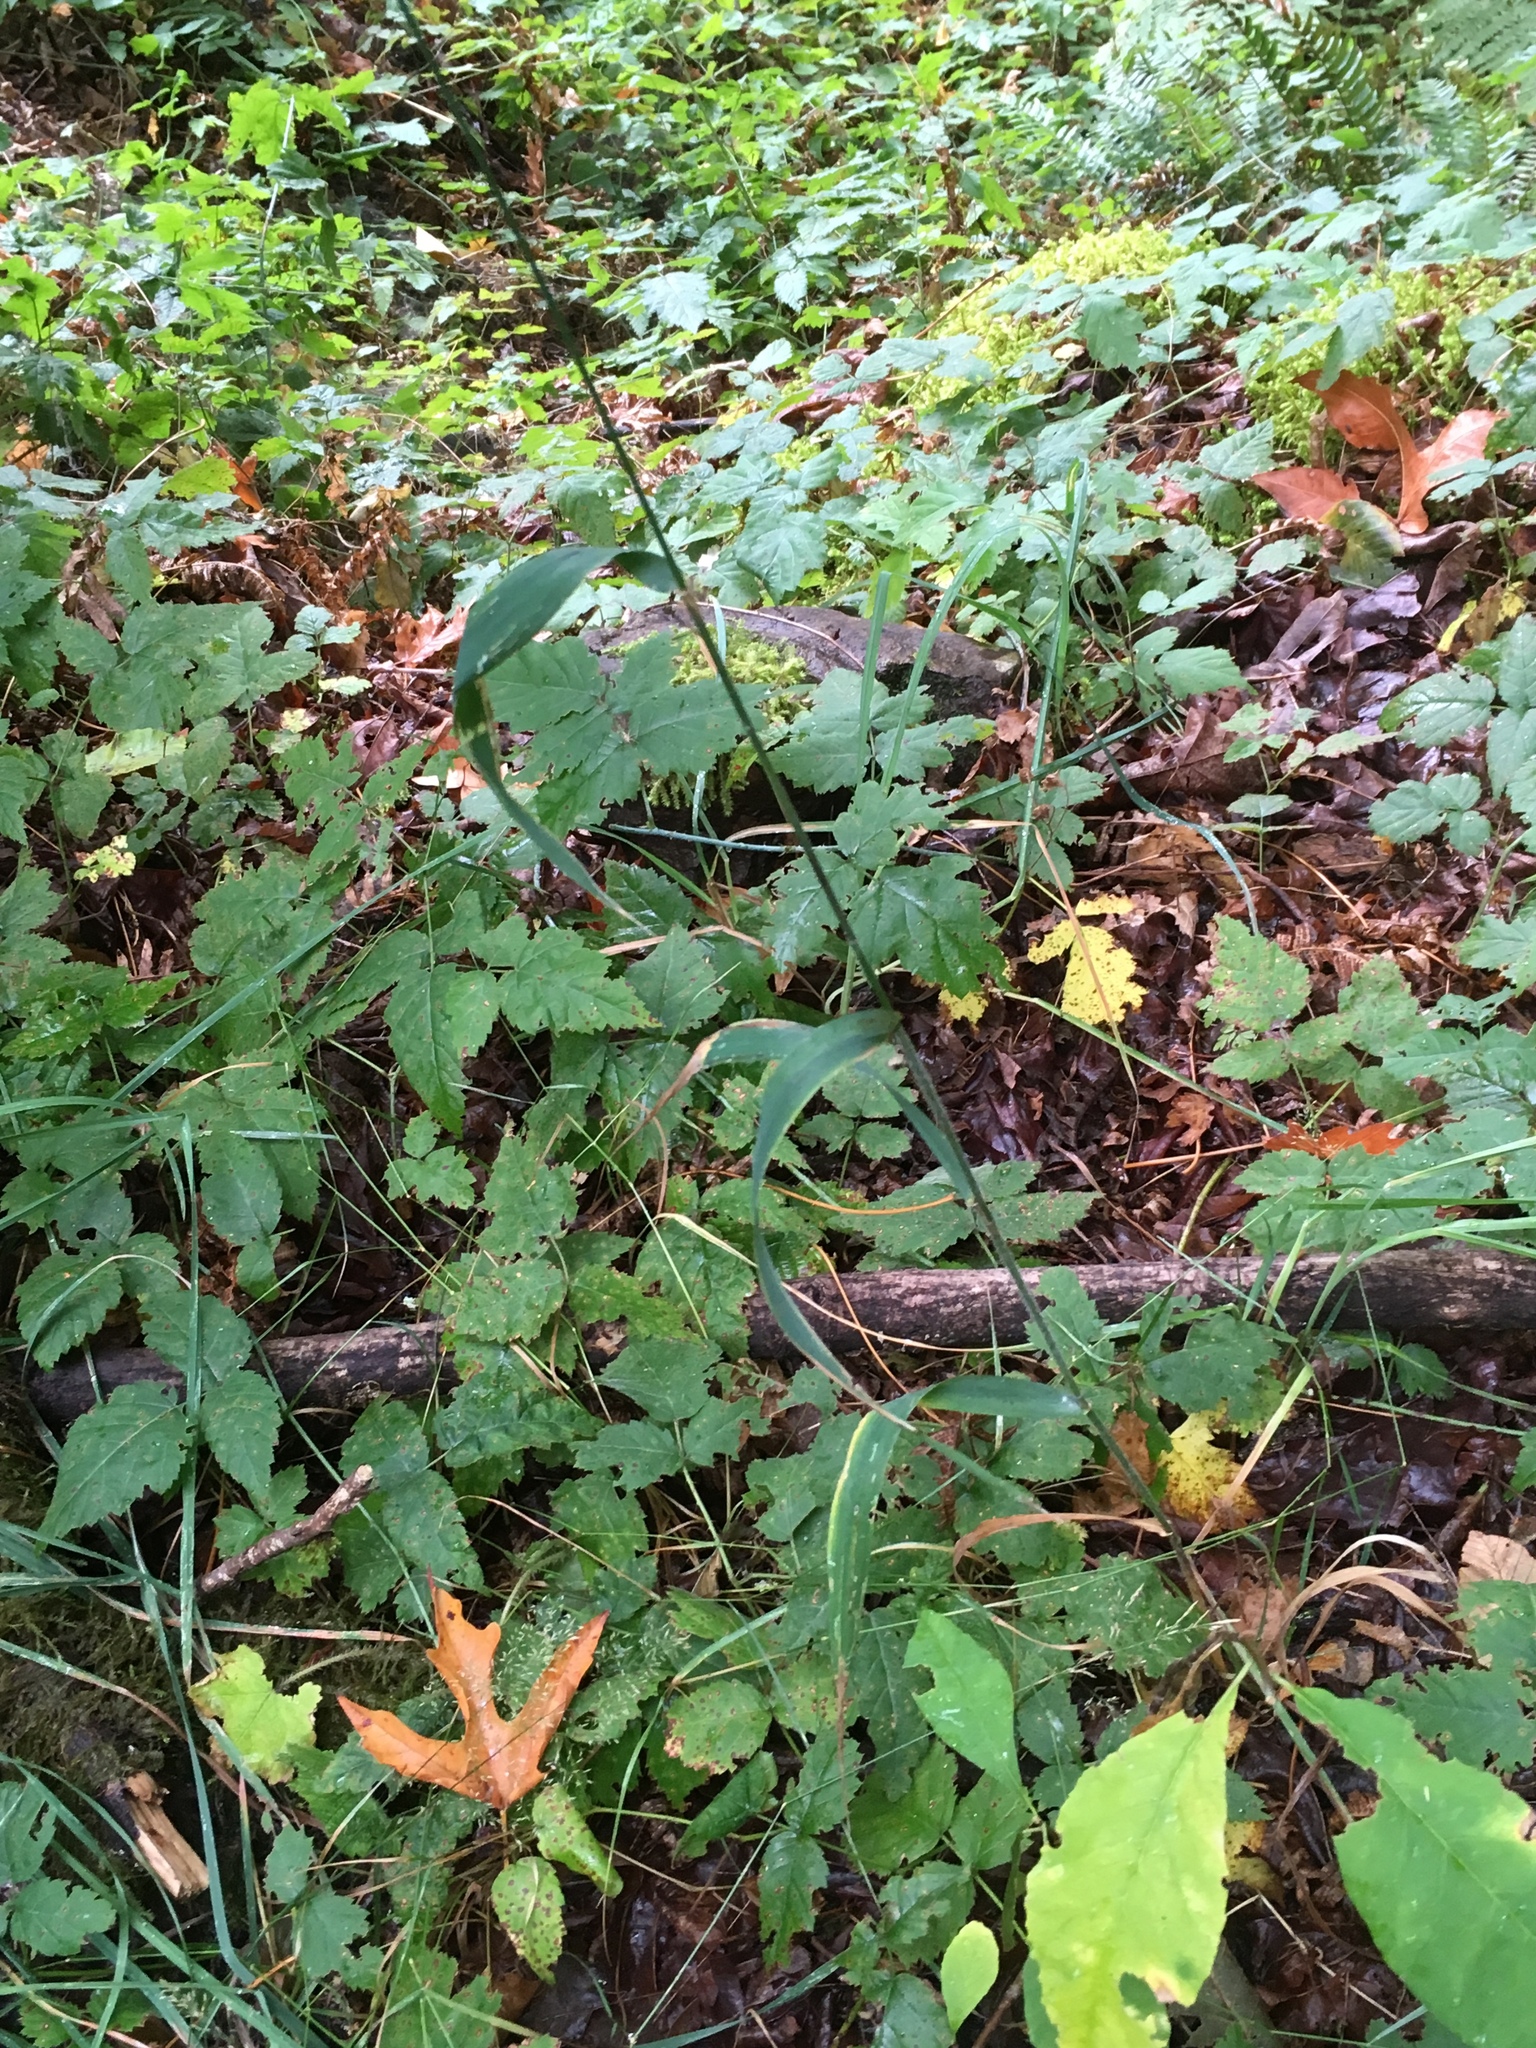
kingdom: Plantae
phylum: Tracheophyta
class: Liliopsida
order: Poales
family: Poaceae
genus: Elymus
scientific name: Elymus glaucus
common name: Blue wild rye
